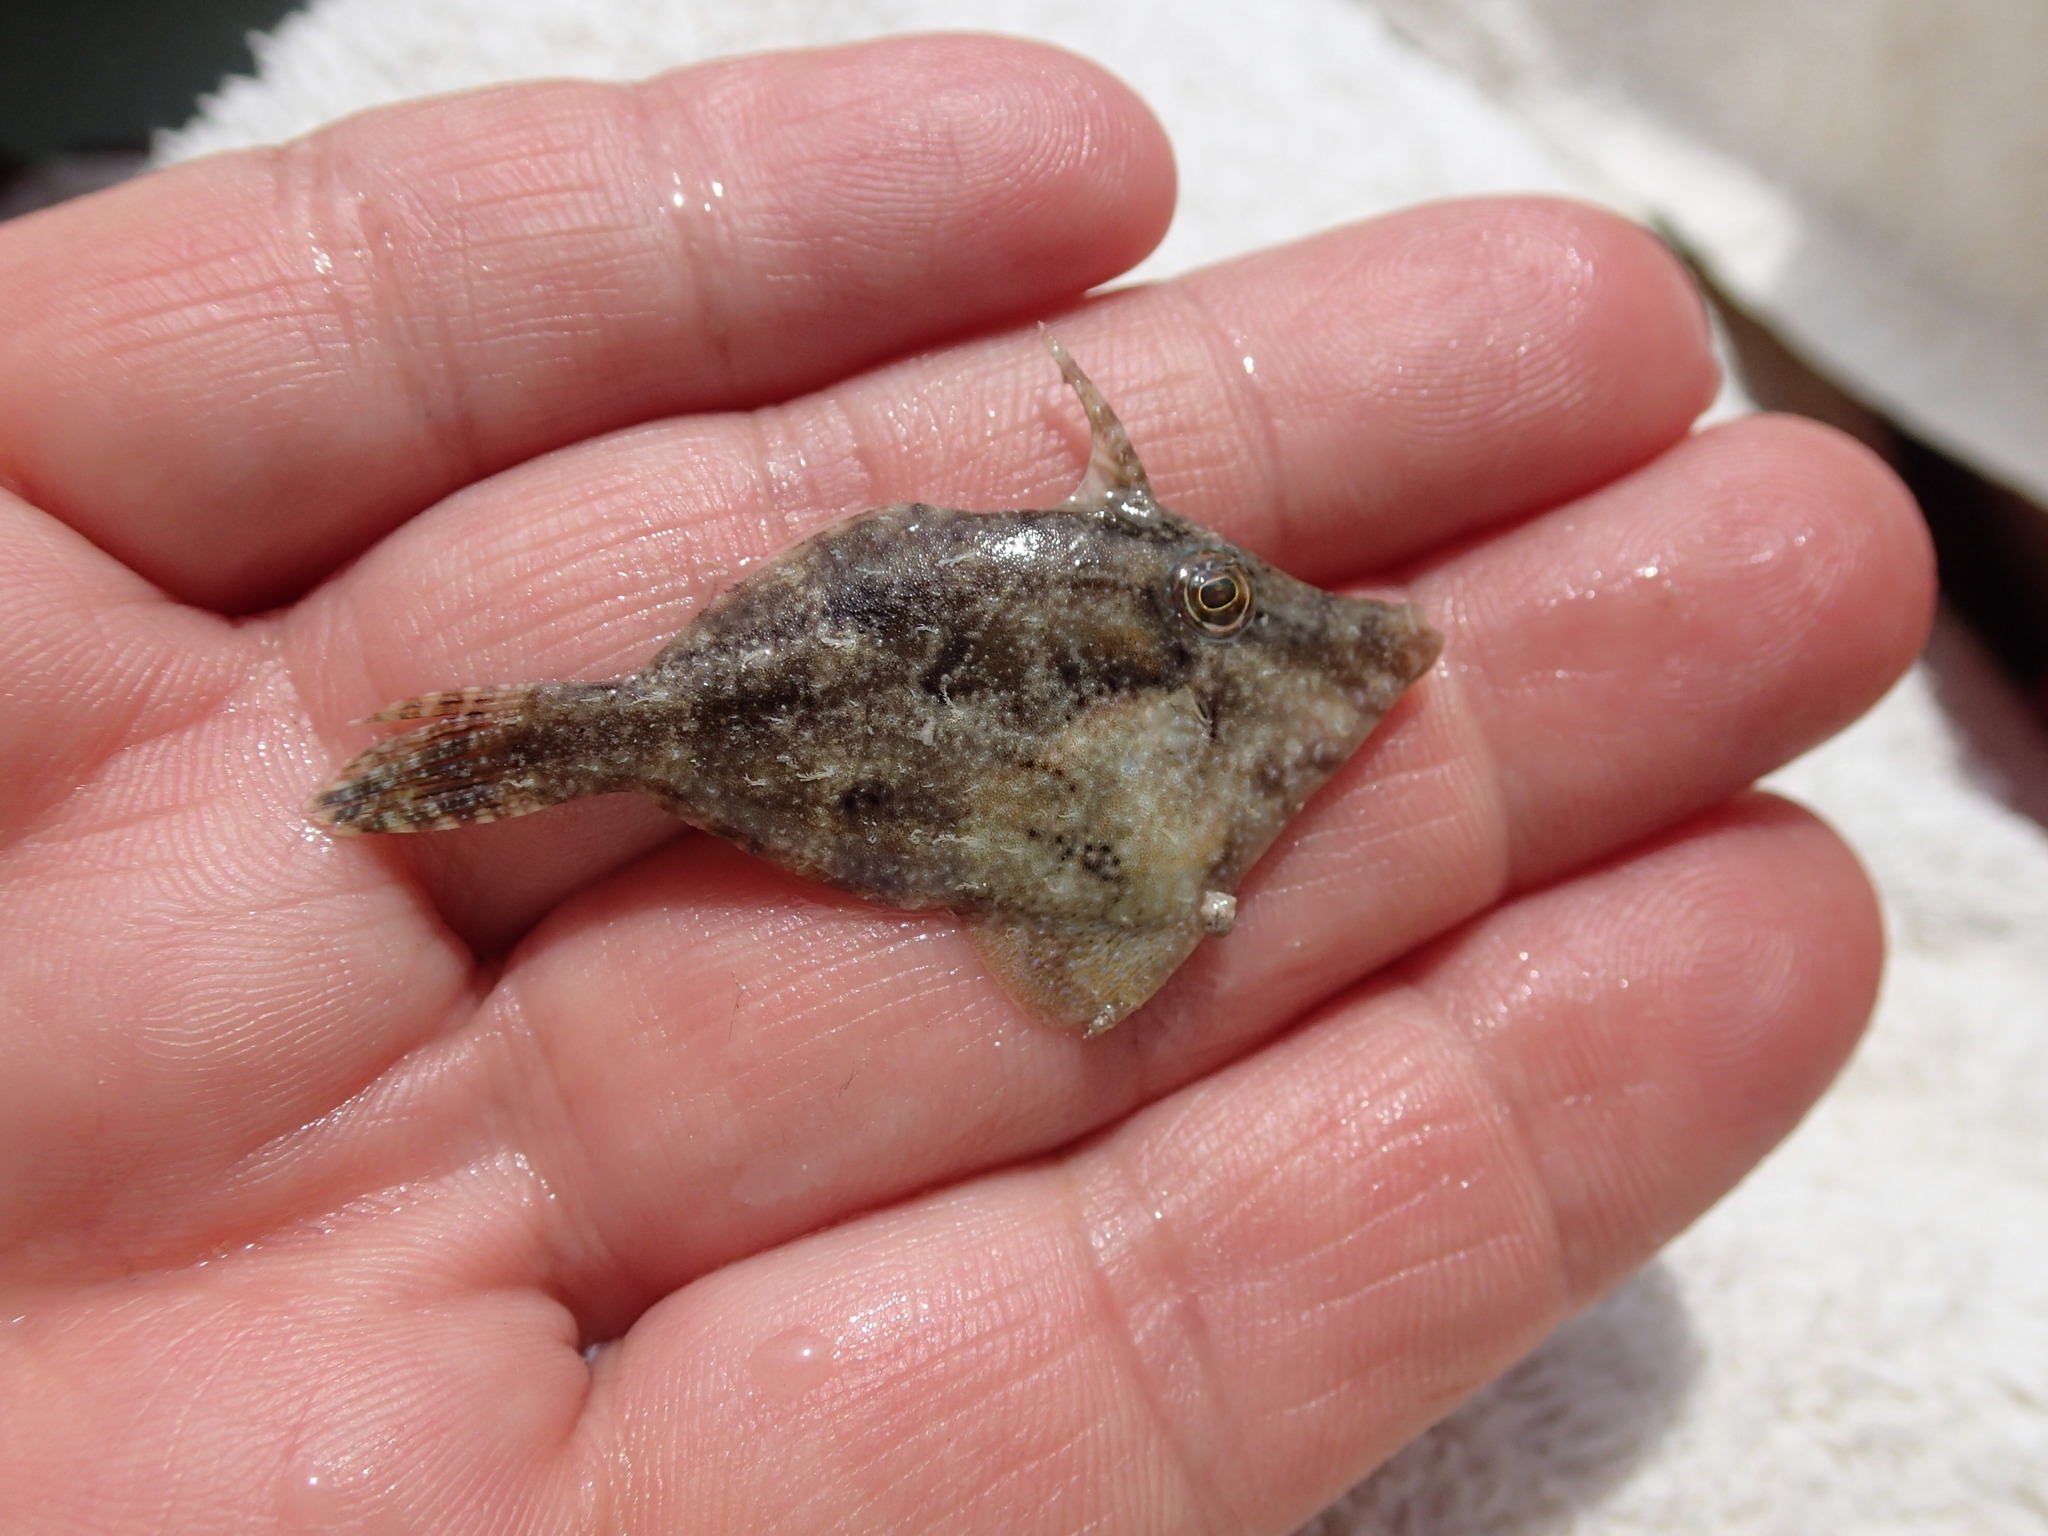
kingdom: Animalia
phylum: Chordata
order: Tetraodontiformes
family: Monacanthidae
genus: Stephanolepis
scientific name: Stephanolepis hispidus
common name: Planehead filefish
